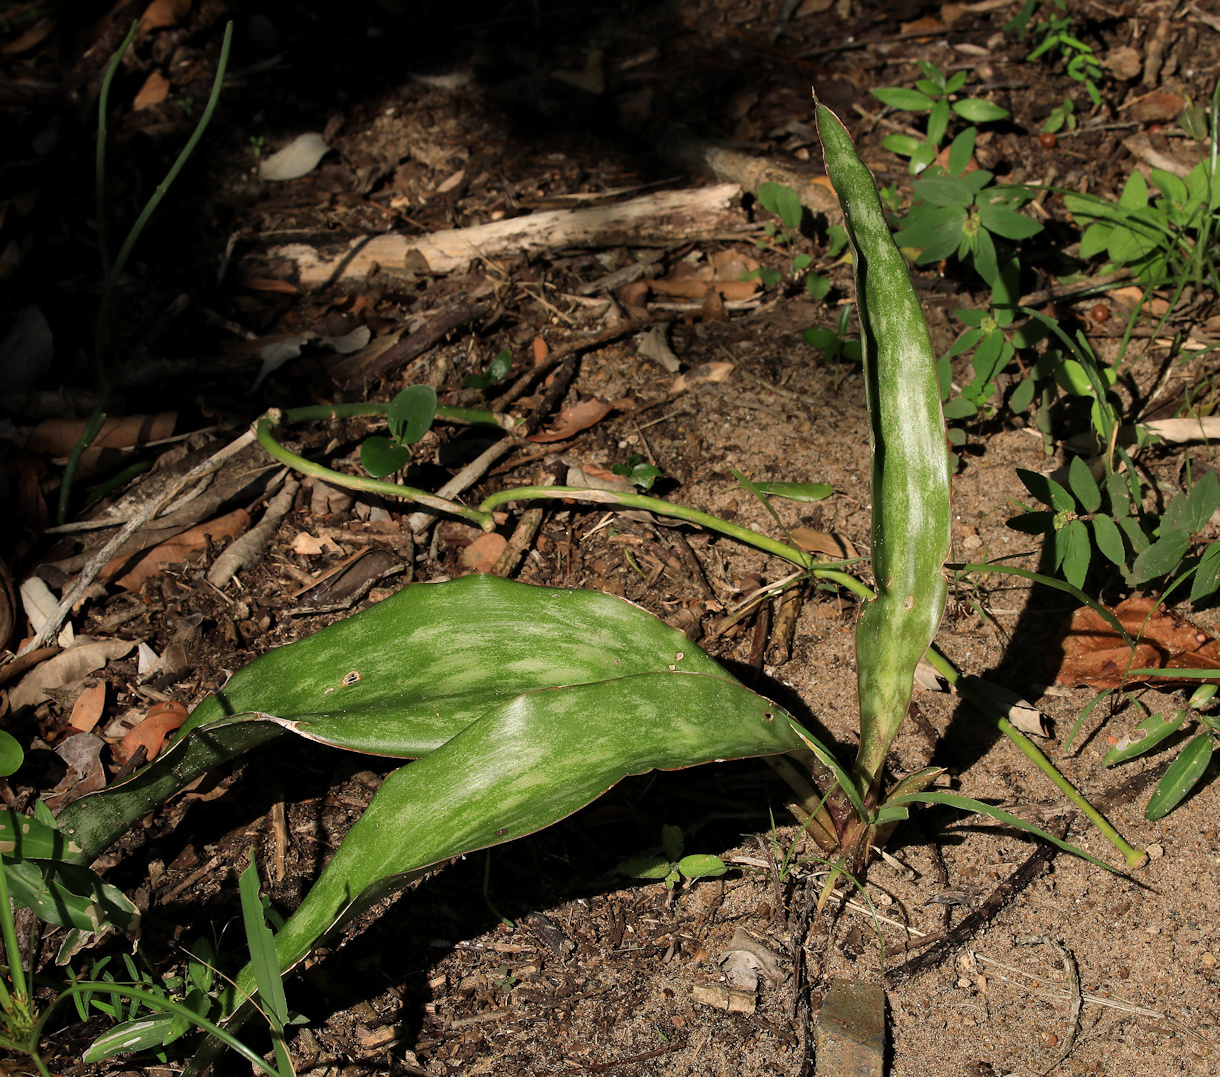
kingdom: Plantae
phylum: Tracheophyta
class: Liliopsida
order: Asparagales
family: Asparagaceae
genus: Dracaena
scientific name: Dracaena hyacinthoides
